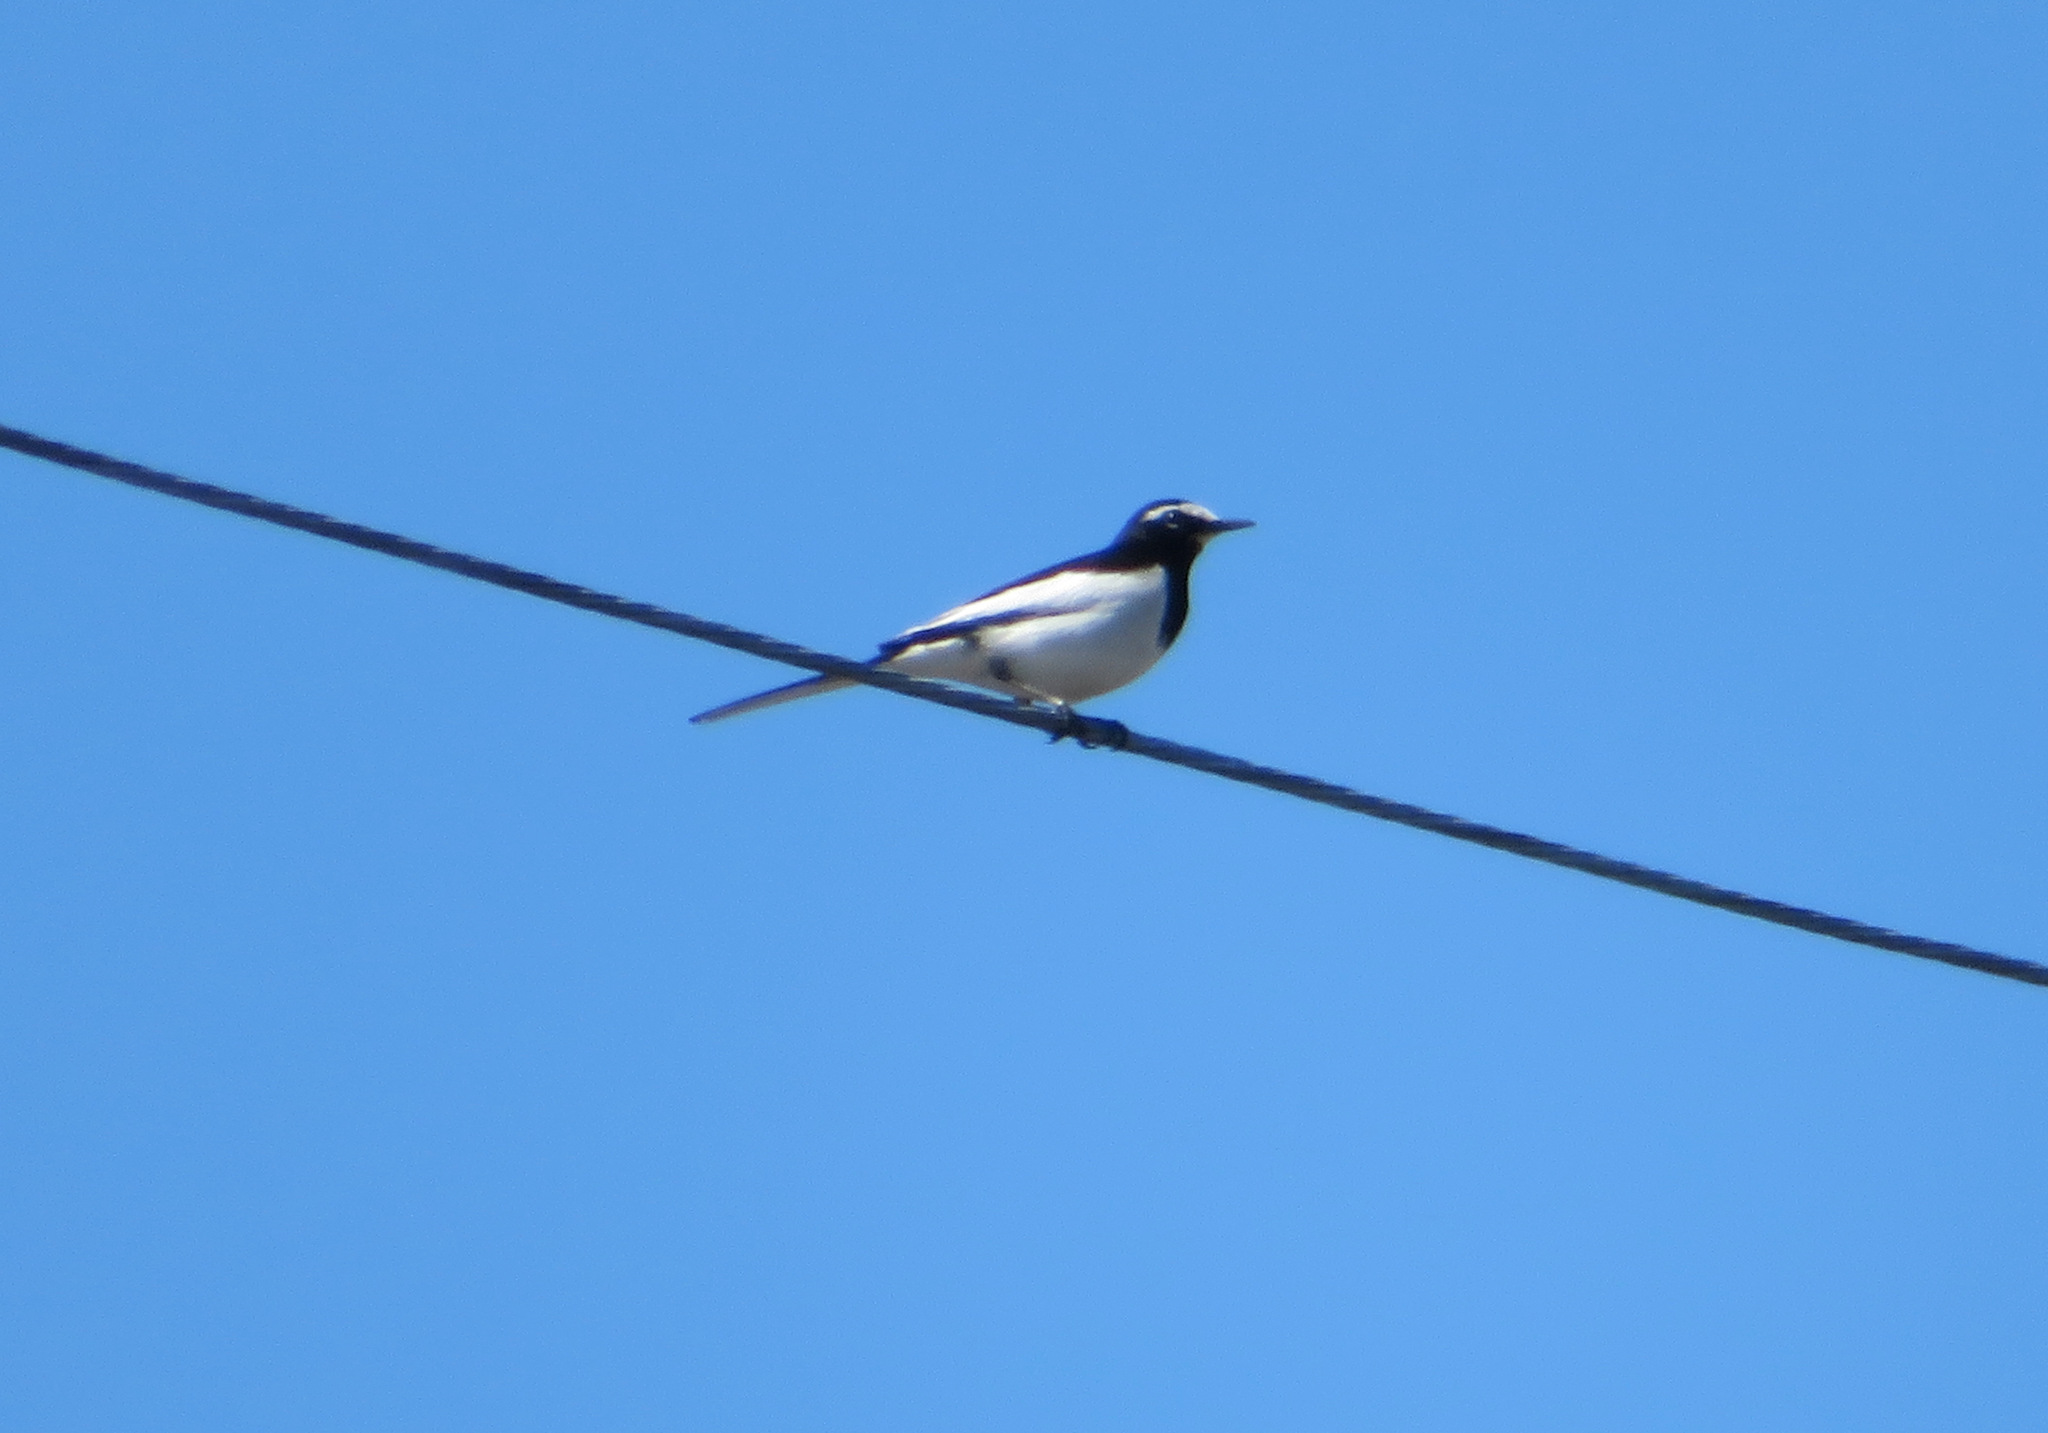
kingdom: Animalia
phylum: Chordata
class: Aves
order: Passeriformes
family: Motacillidae
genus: Motacilla
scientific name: Motacilla grandis
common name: Japanese wagtail
